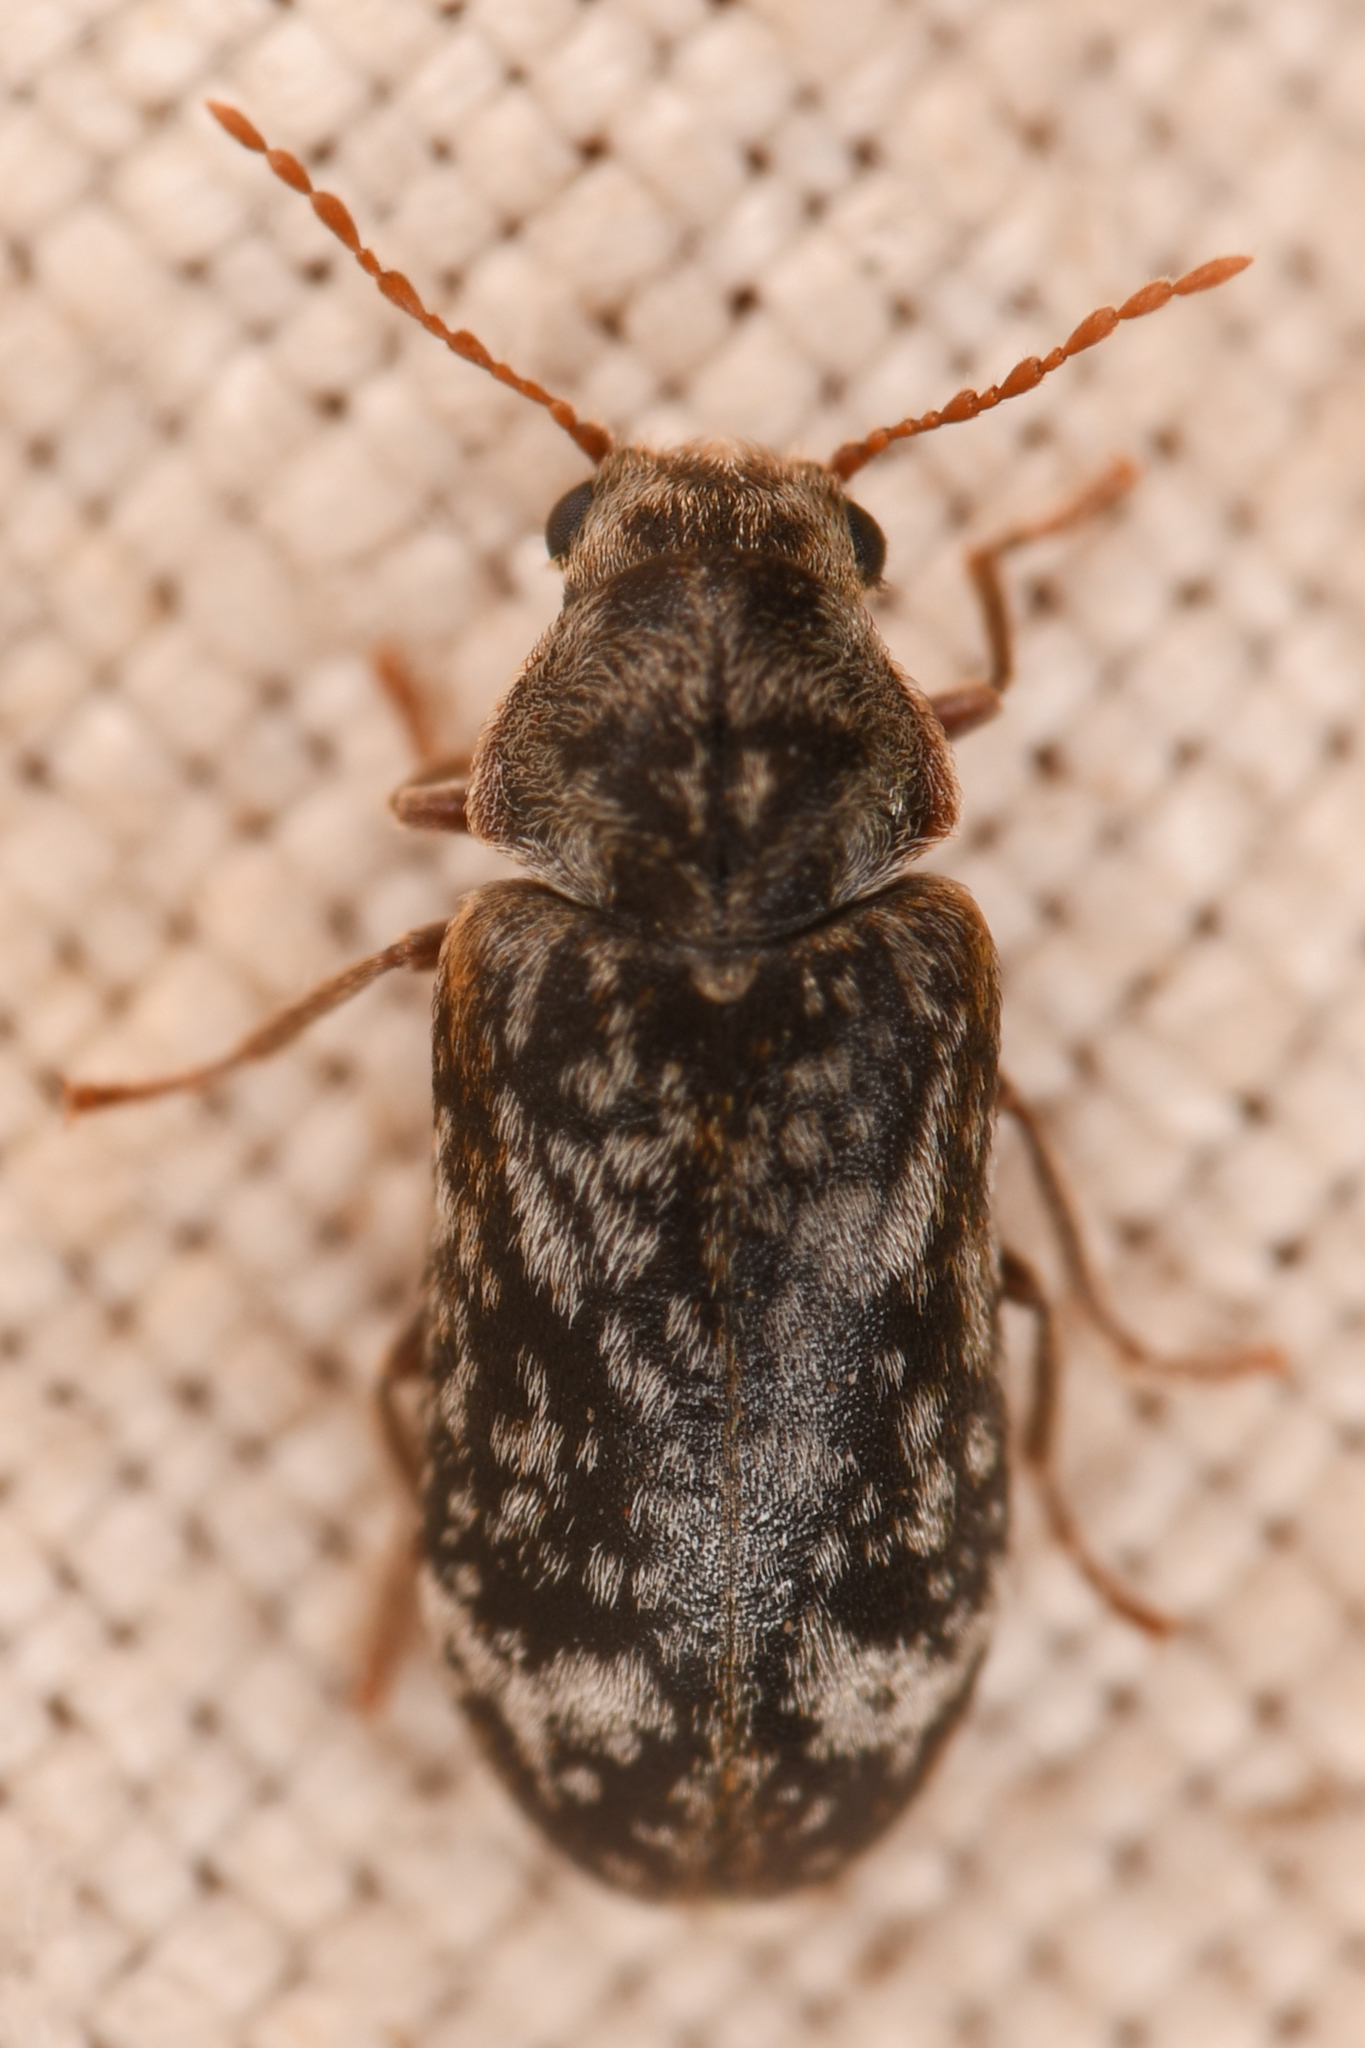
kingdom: Animalia
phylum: Arthropoda
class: Insecta
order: Coleoptera
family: Anobiidae
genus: Utobium
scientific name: Utobium granulatum
